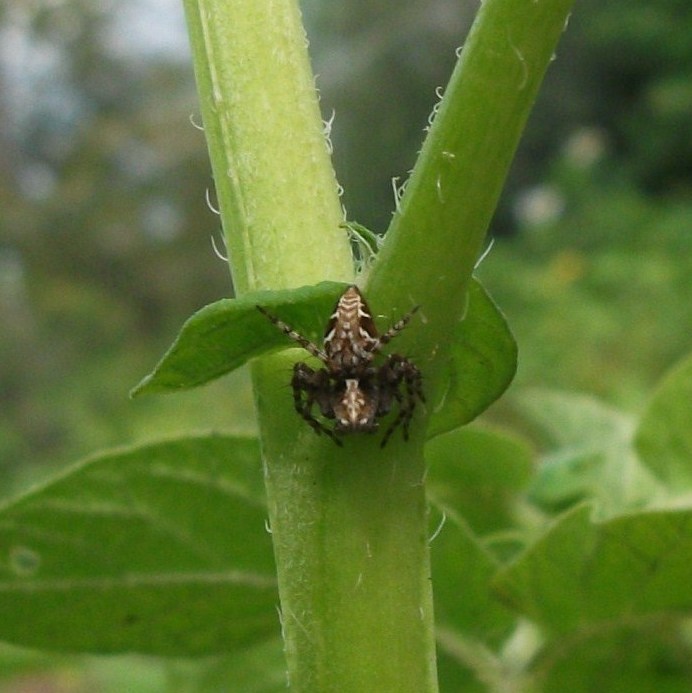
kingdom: Animalia
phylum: Arthropoda
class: Arachnida
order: Araneae
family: Oxyopidae
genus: Oxyopes
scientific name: Oxyopes ramosus
